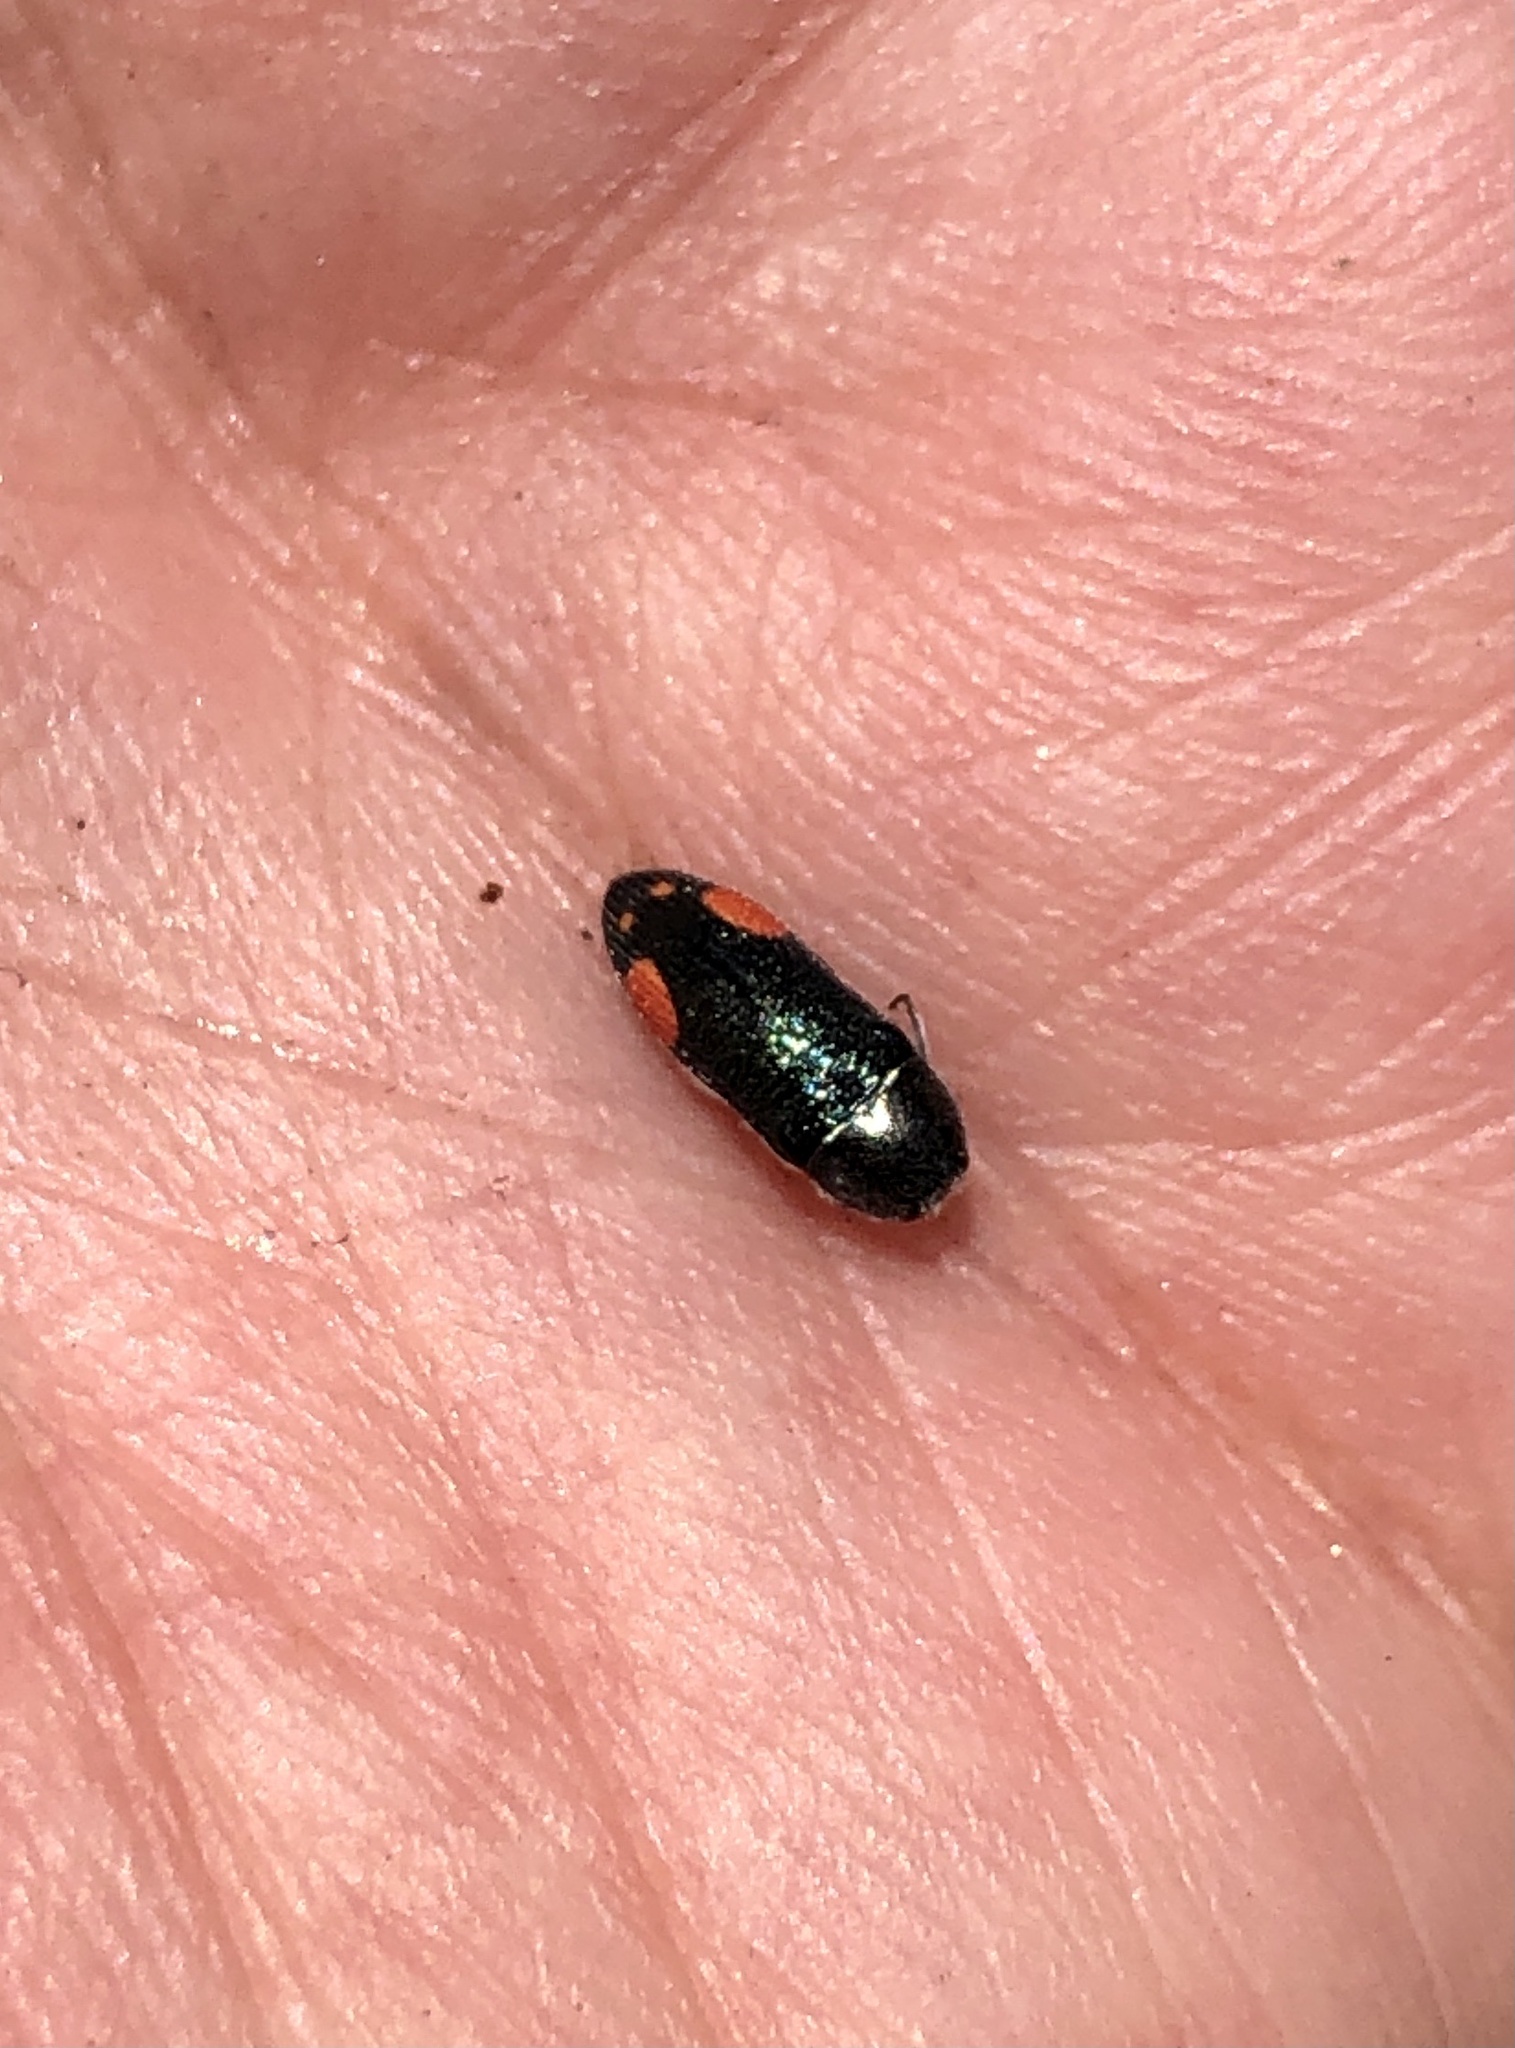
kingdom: Animalia
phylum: Arthropoda
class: Insecta
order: Coleoptera
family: Buprestidae
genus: Acmaeodera
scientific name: Acmaeodera bivulnera
